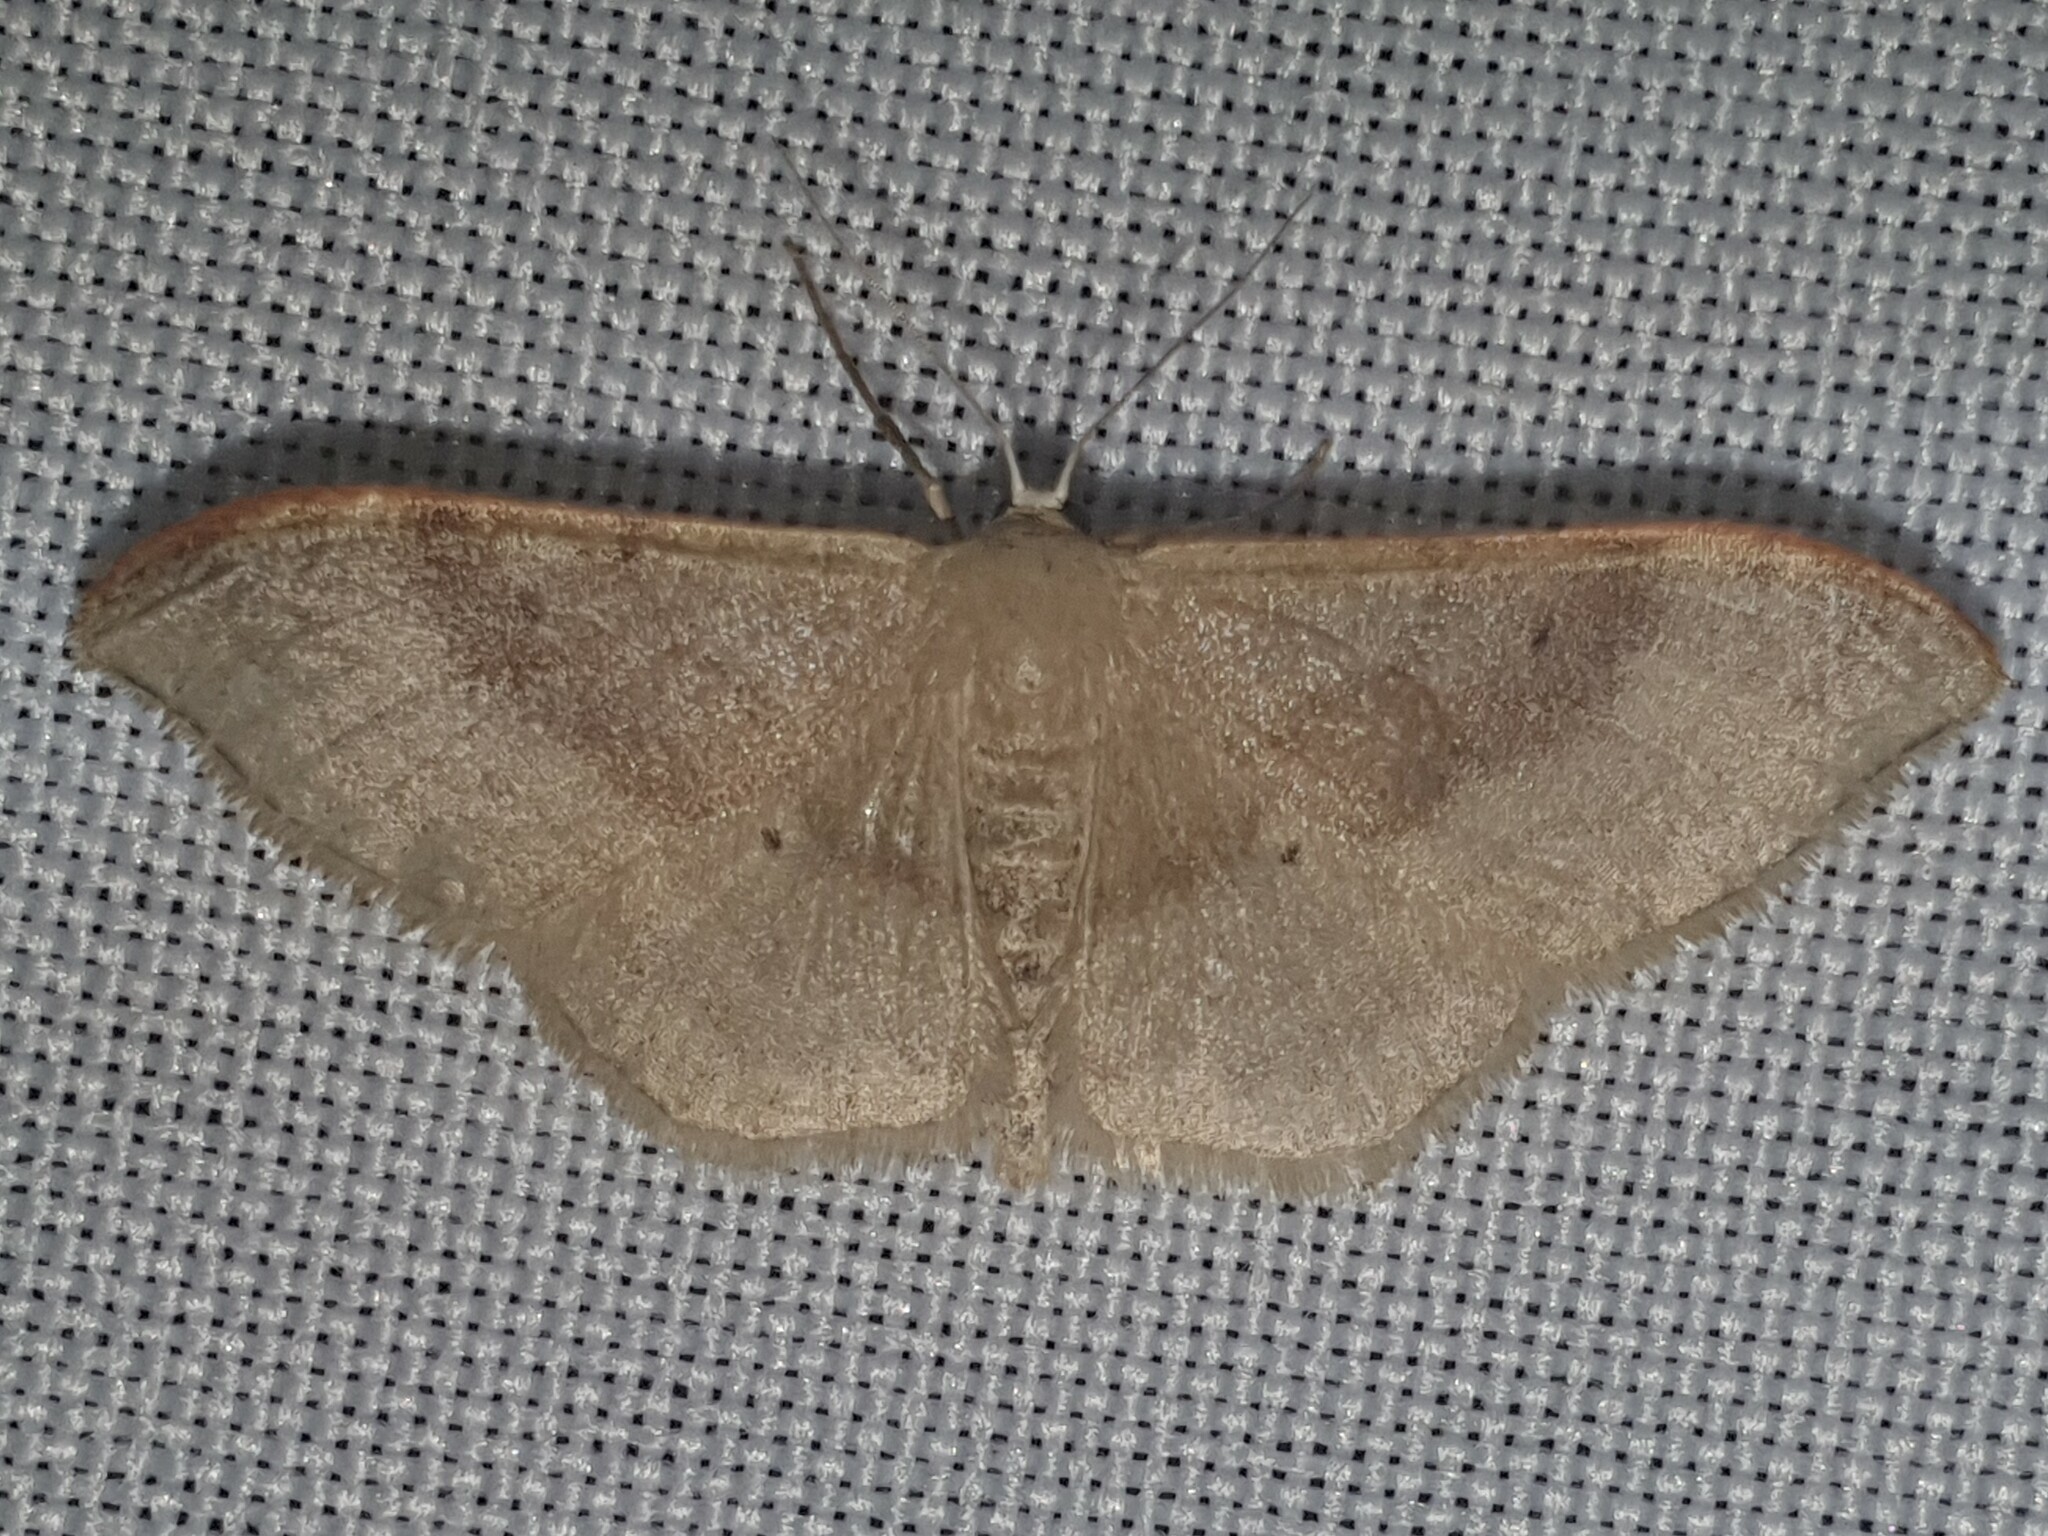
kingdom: Animalia
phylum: Arthropoda
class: Insecta
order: Lepidoptera
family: Geometridae
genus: Idaea
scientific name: Idaea degeneraria
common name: Portland ribbon wave
